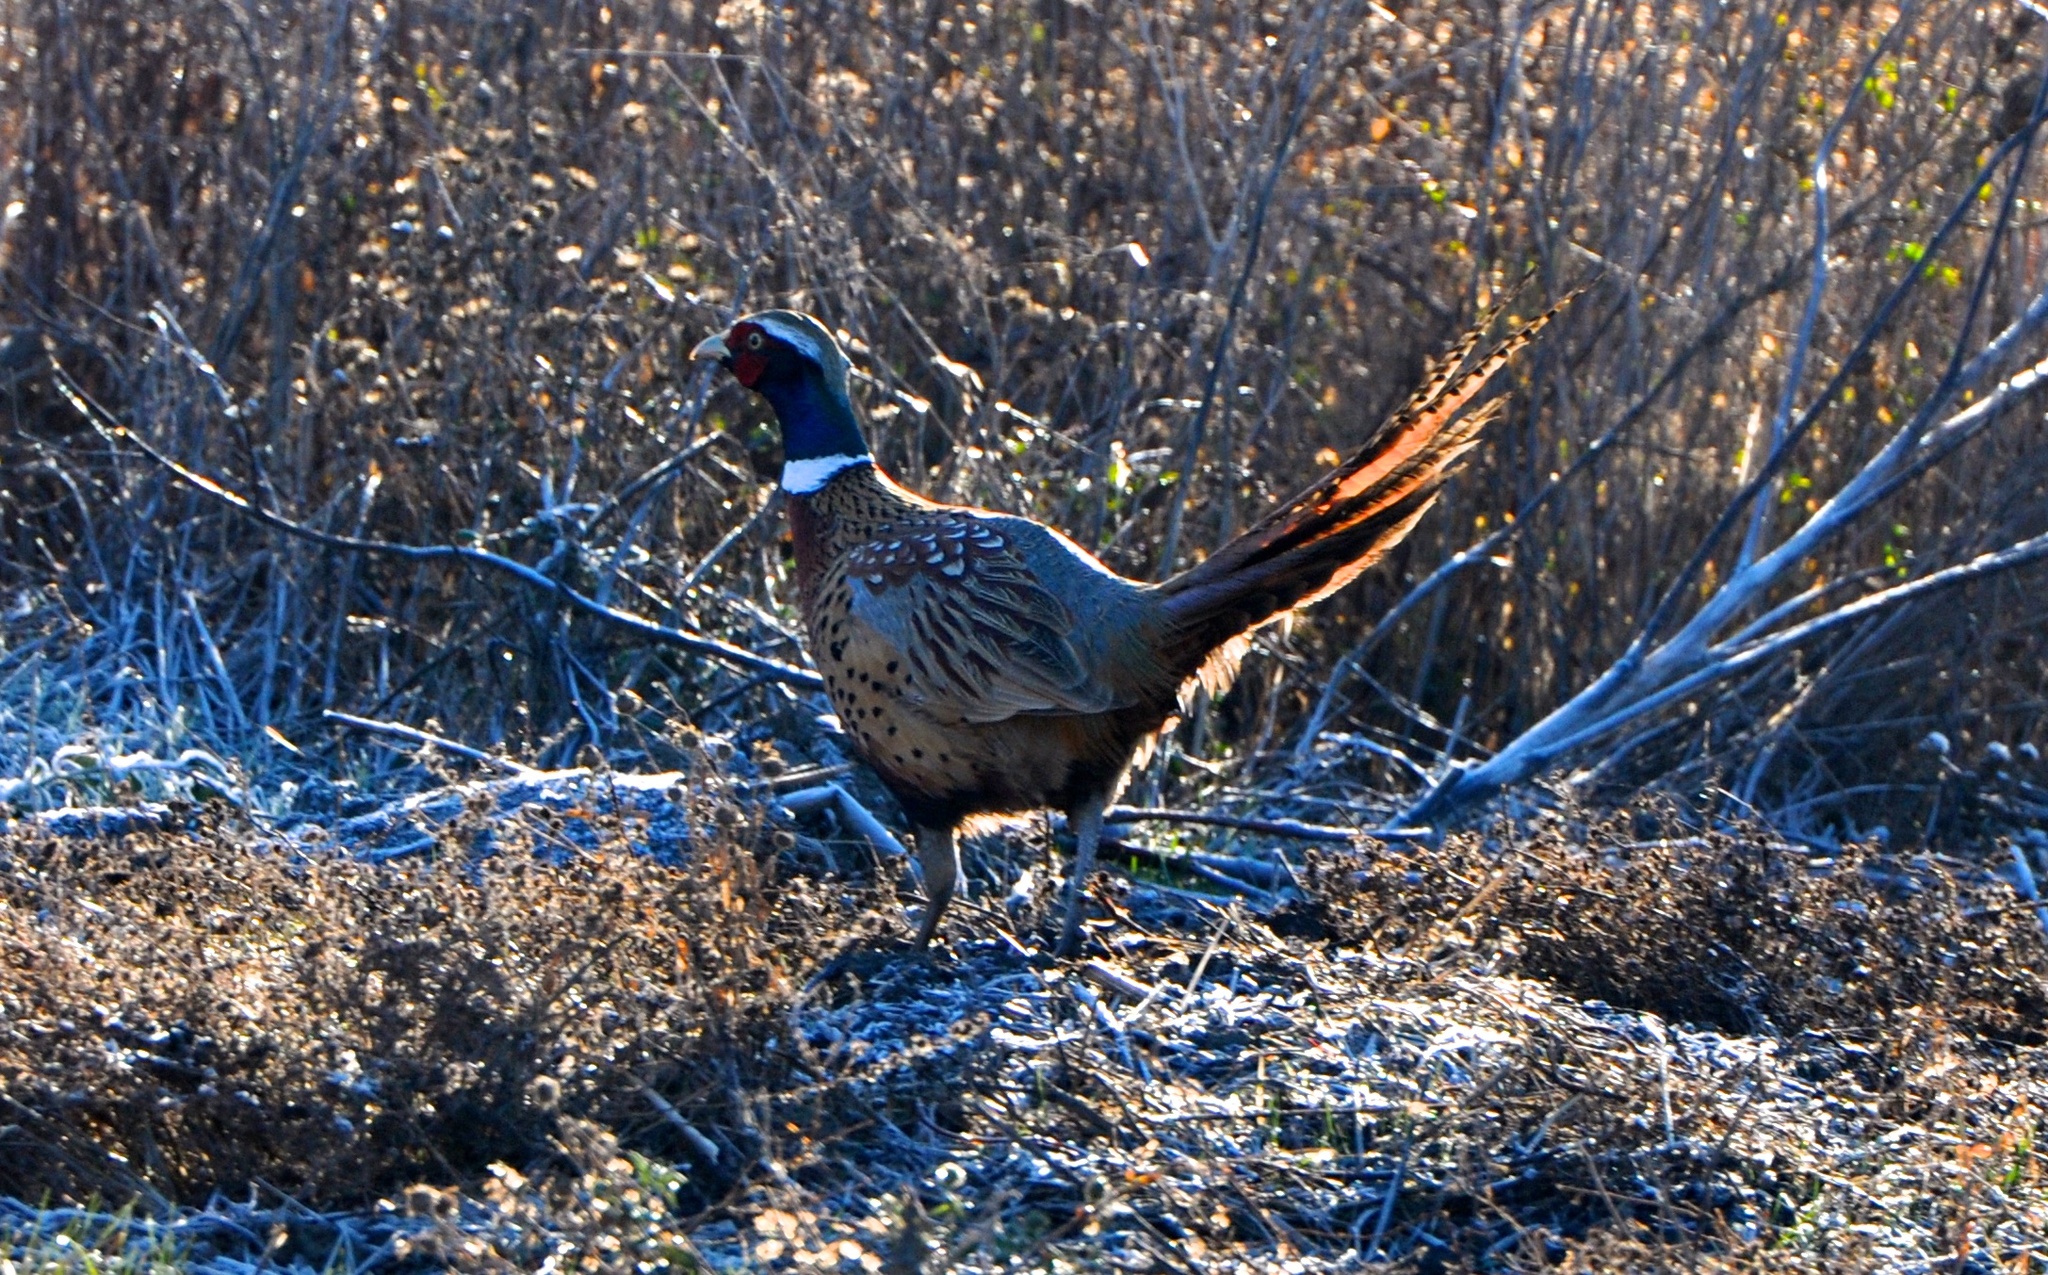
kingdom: Animalia
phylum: Chordata
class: Aves
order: Galliformes
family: Phasianidae
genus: Phasianus
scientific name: Phasianus colchicus
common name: Common pheasant
